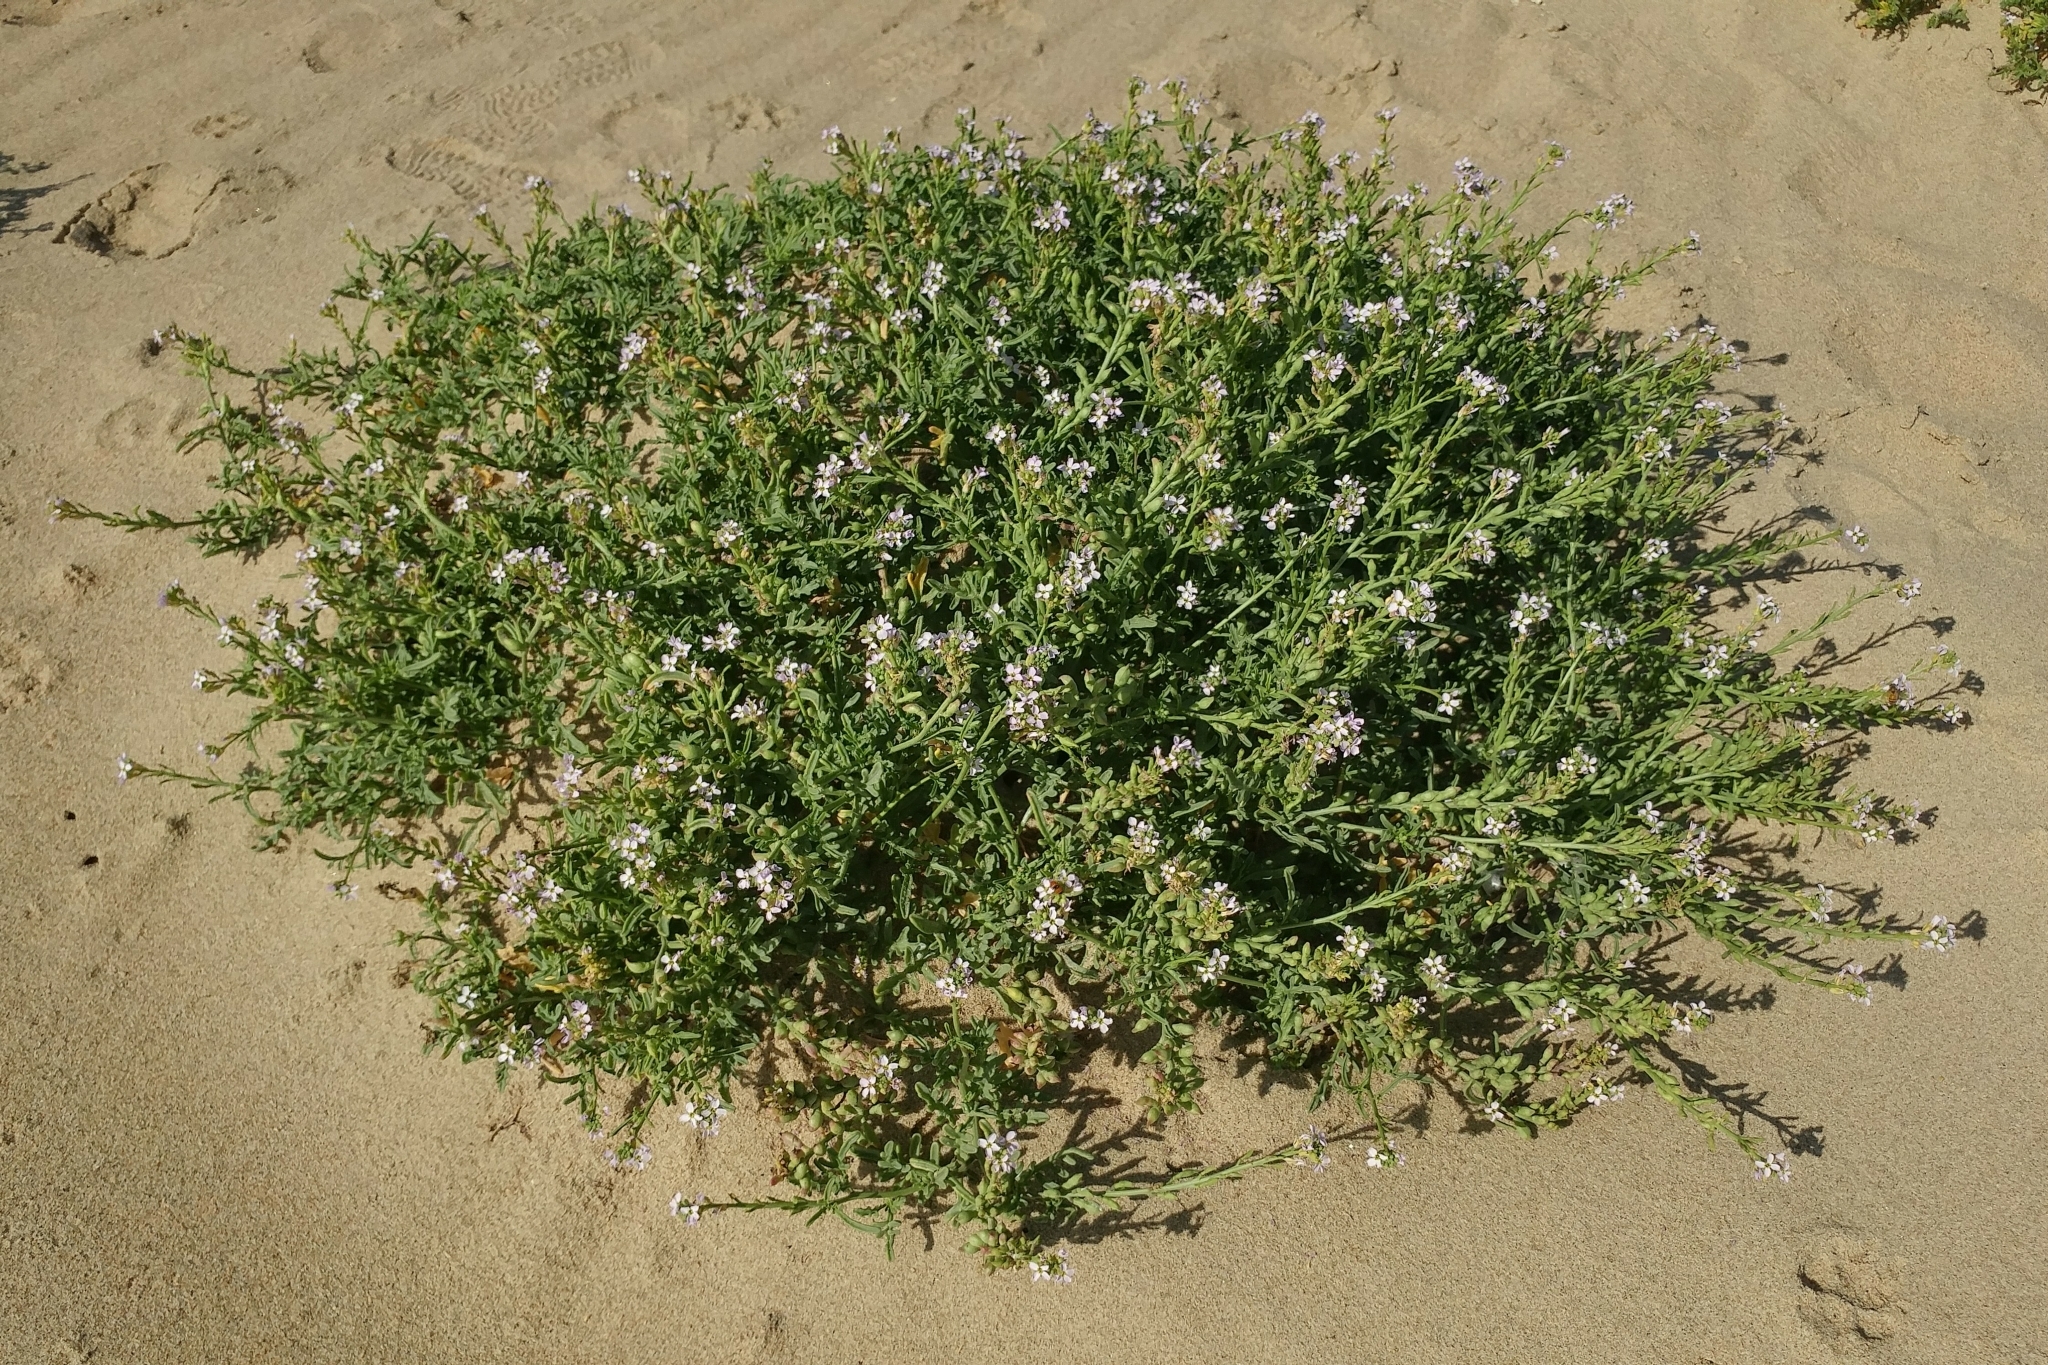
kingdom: Plantae
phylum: Tracheophyta
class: Magnoliopsida
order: Brassicales
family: Brassicaceae
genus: Cakile
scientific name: Cakile maritima
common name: Sea rocket
